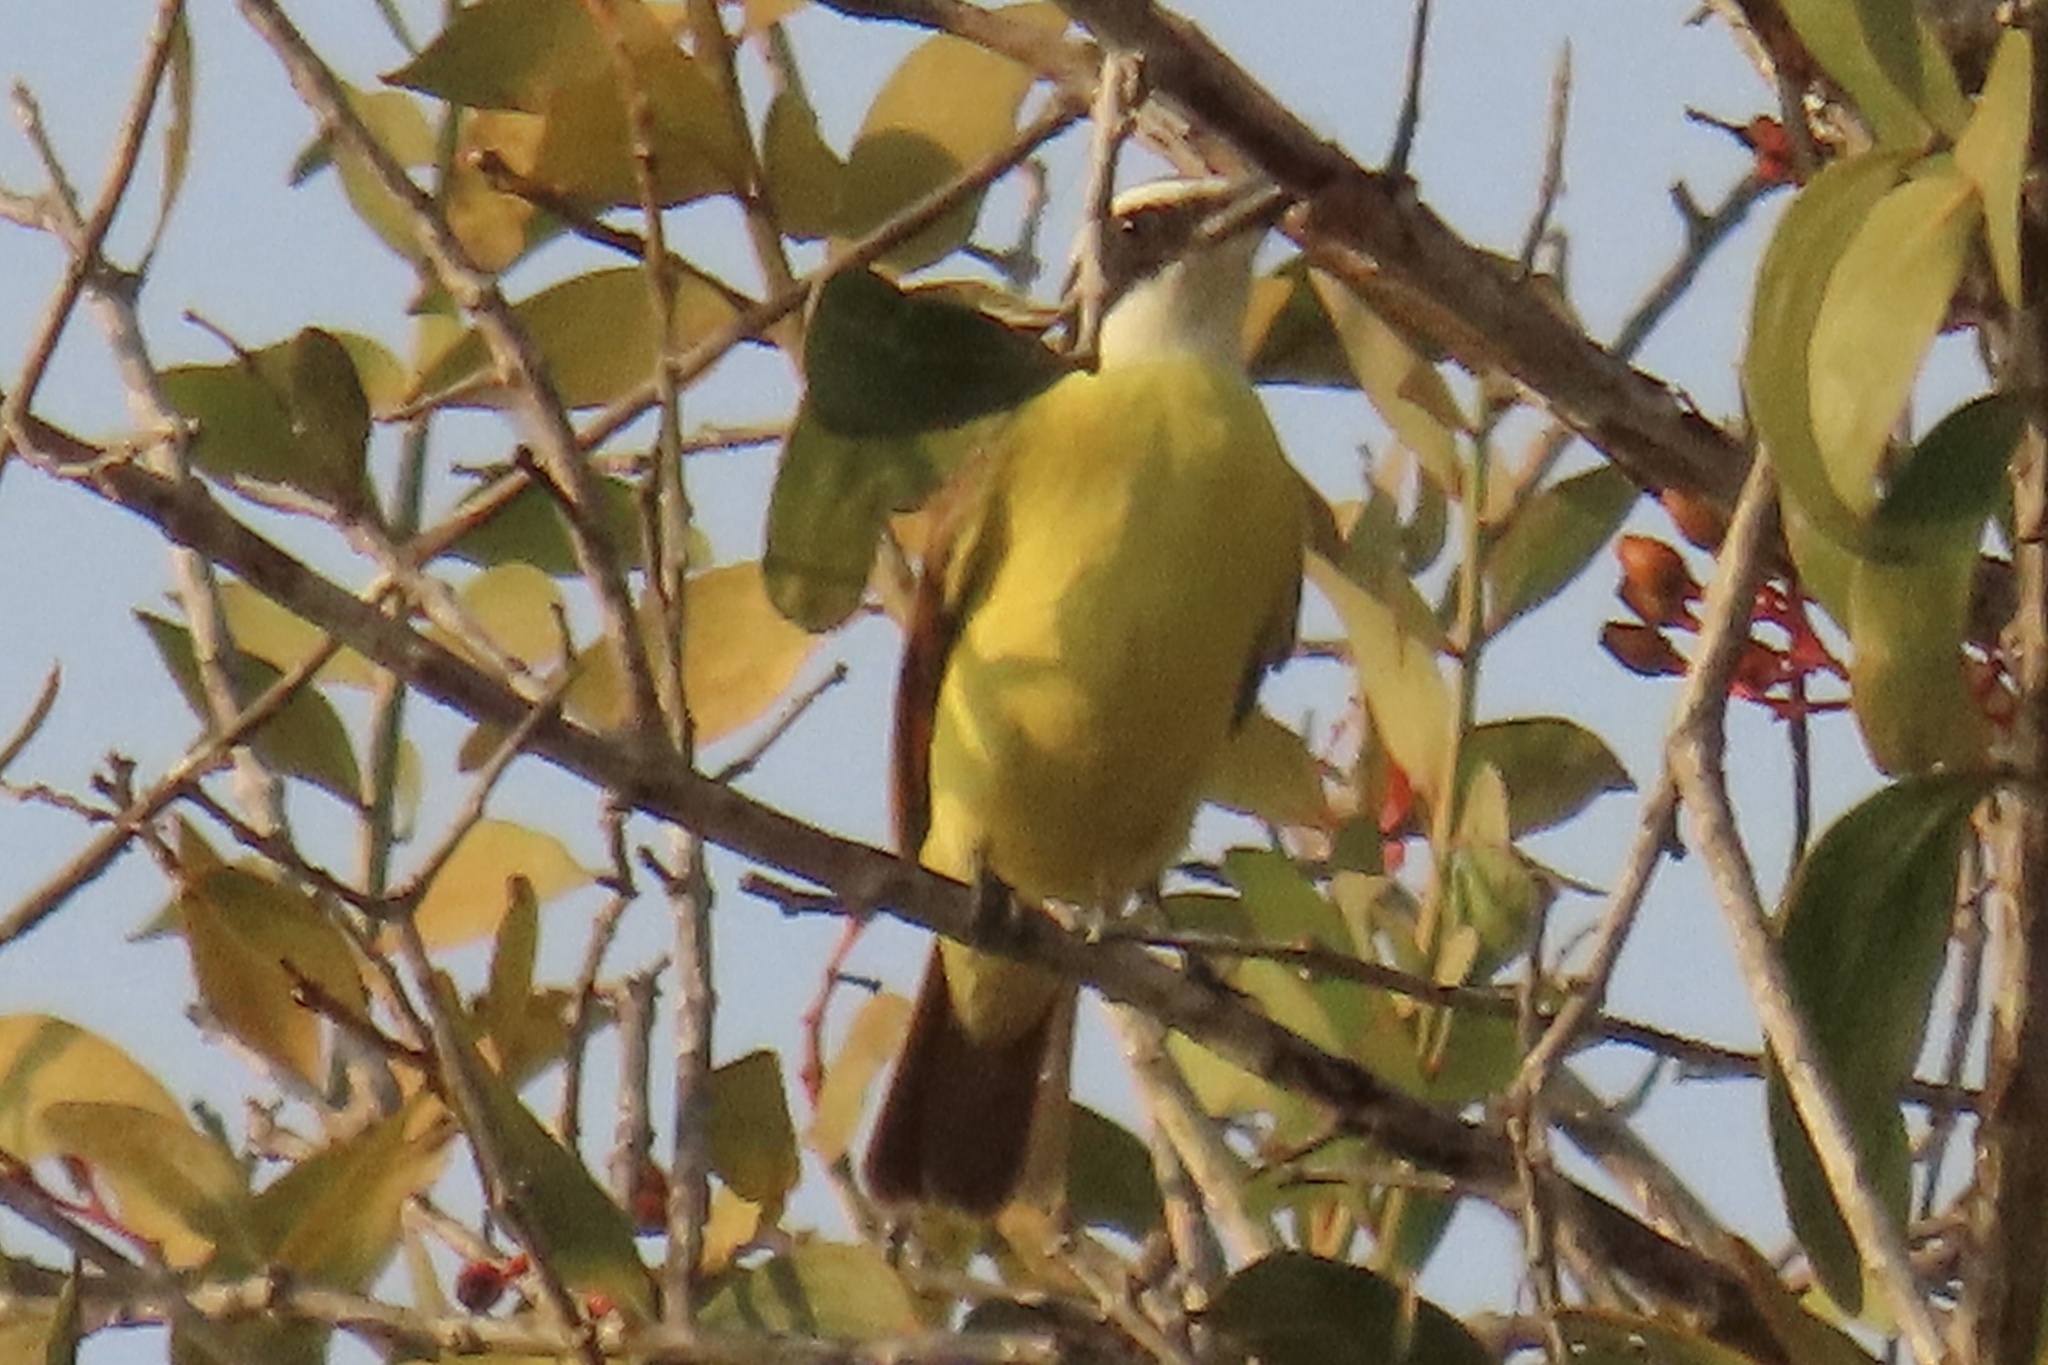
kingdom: Animalia
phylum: Chordata
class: Aves
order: Passeriformes
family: Tyrannidae
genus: Pitangus
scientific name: Pitangus sulphuratus
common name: Great kiskadee
